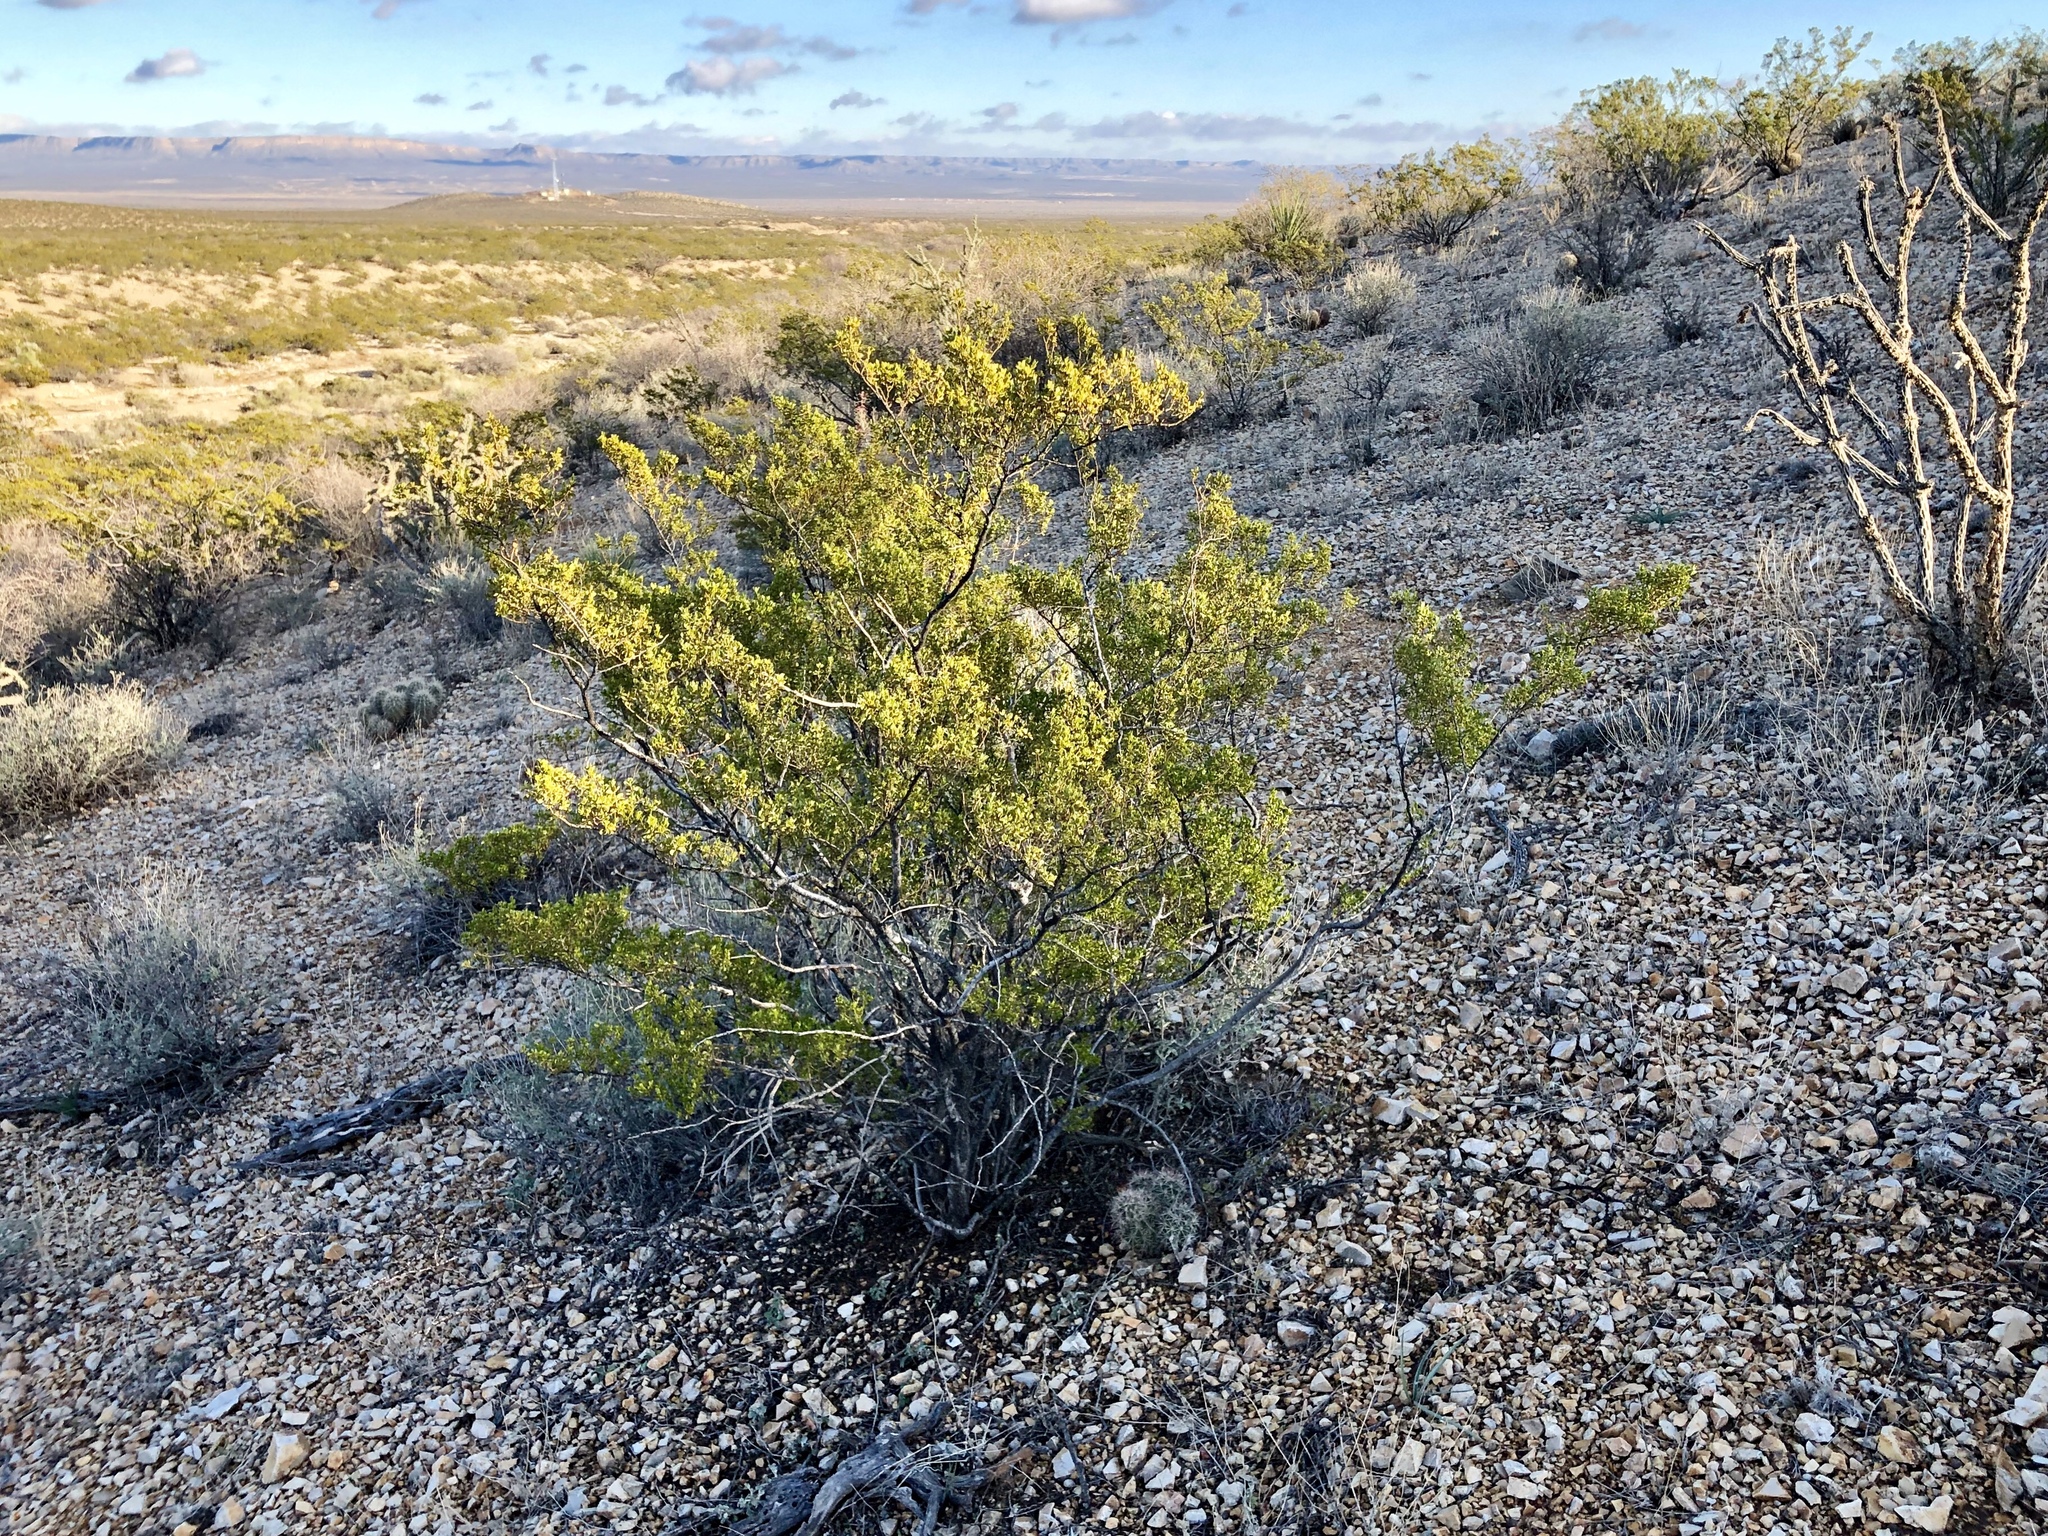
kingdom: Plantae
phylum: Tracheophyta
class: Magnoliopsida
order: Zygophyllales
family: Zygophyllaceae
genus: Larrea
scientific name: Larrea tridentata
